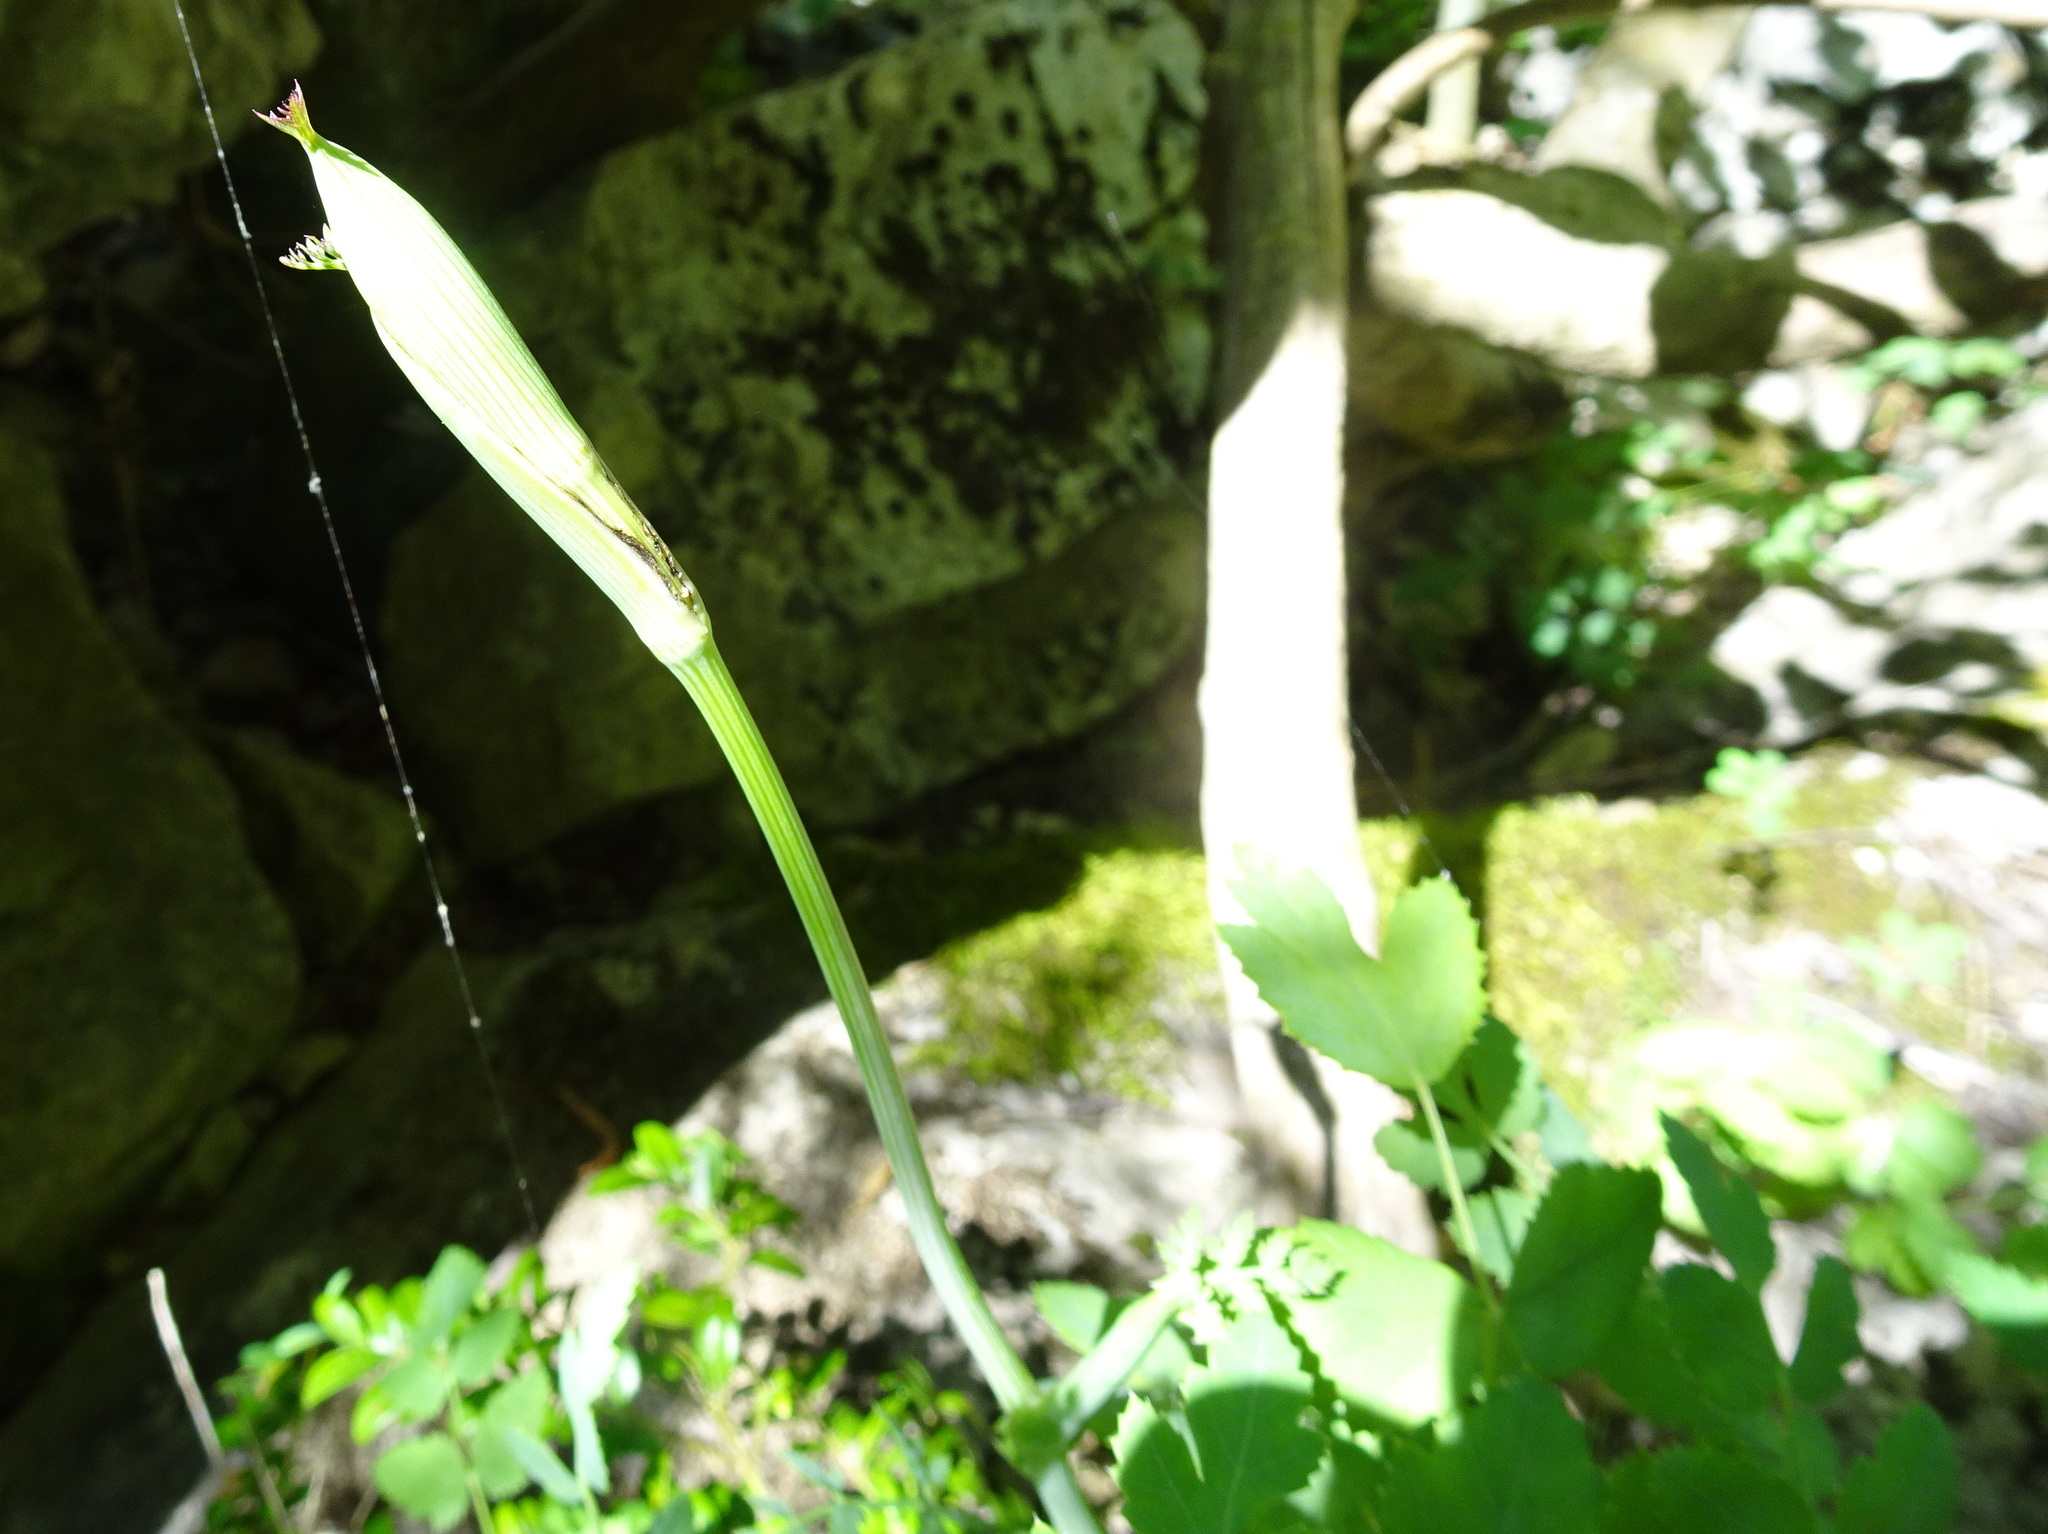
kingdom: Plantae
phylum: Tracheophyta
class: Magnoliopsida
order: Apiales
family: Apiaceae
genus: Cervaria
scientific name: Cervaria rivini
